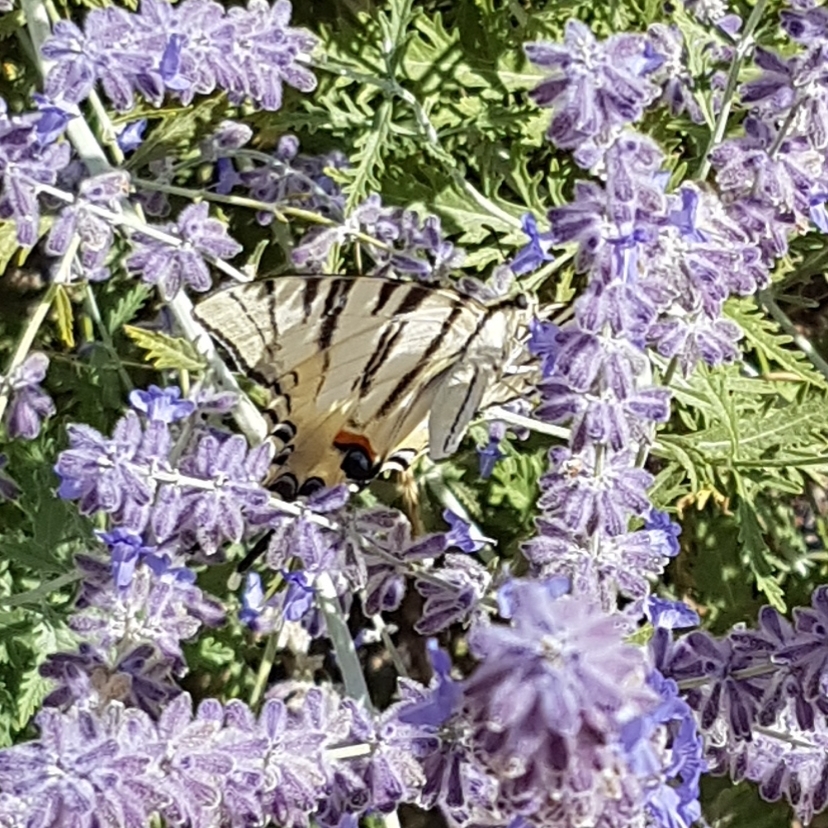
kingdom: Animalia
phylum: Arthropoda
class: Insecta
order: Lepidoptera
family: Papilionidae
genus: Iphiclides
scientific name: Iphiclides podalirius
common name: Scarce swallowtail
